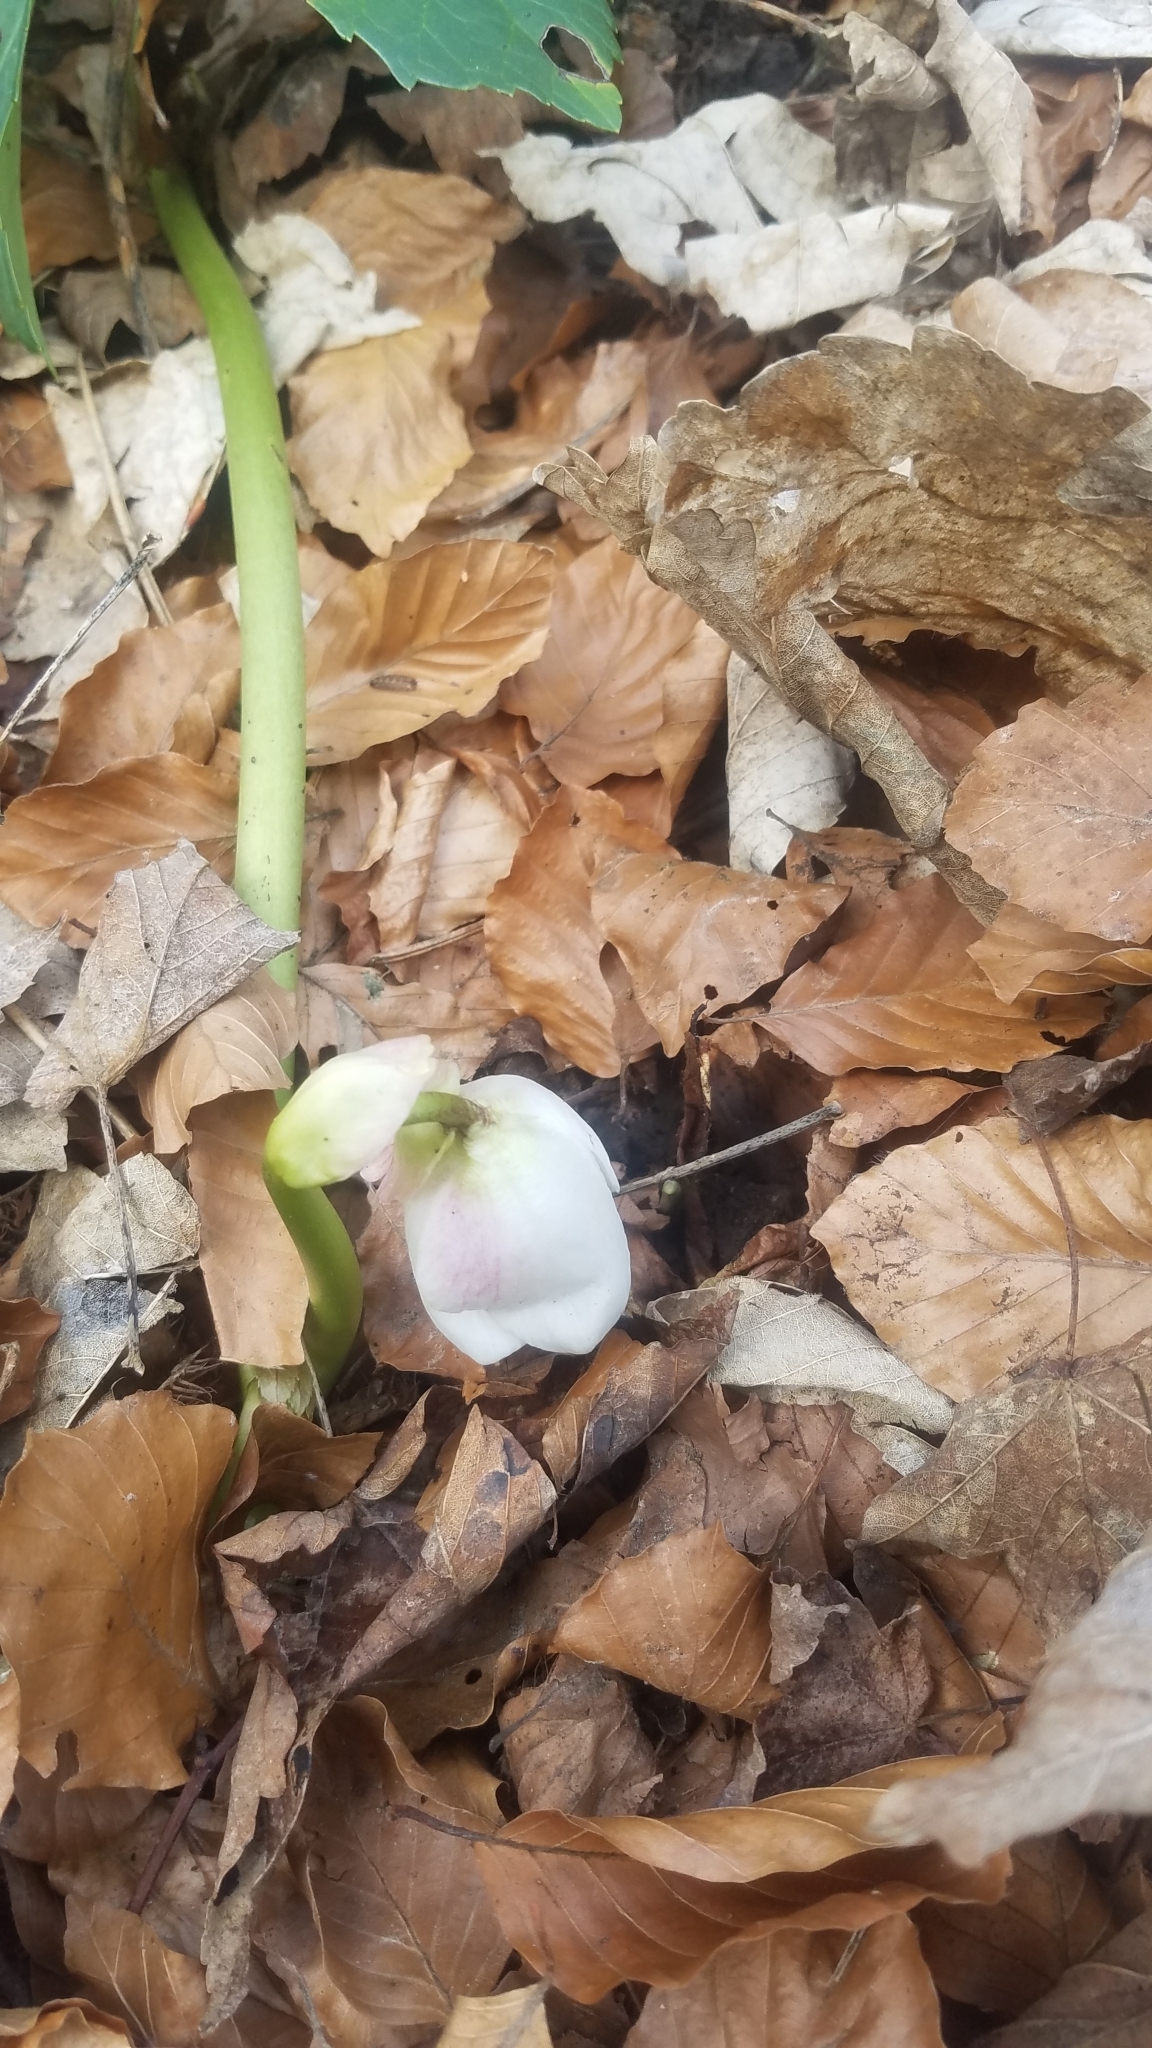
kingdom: Plantae
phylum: Tracheophyta
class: Magnoliopsida
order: Ranunculales
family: Ranunculaceae
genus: Helleborus
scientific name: Helleborus niger
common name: Black hellebore
